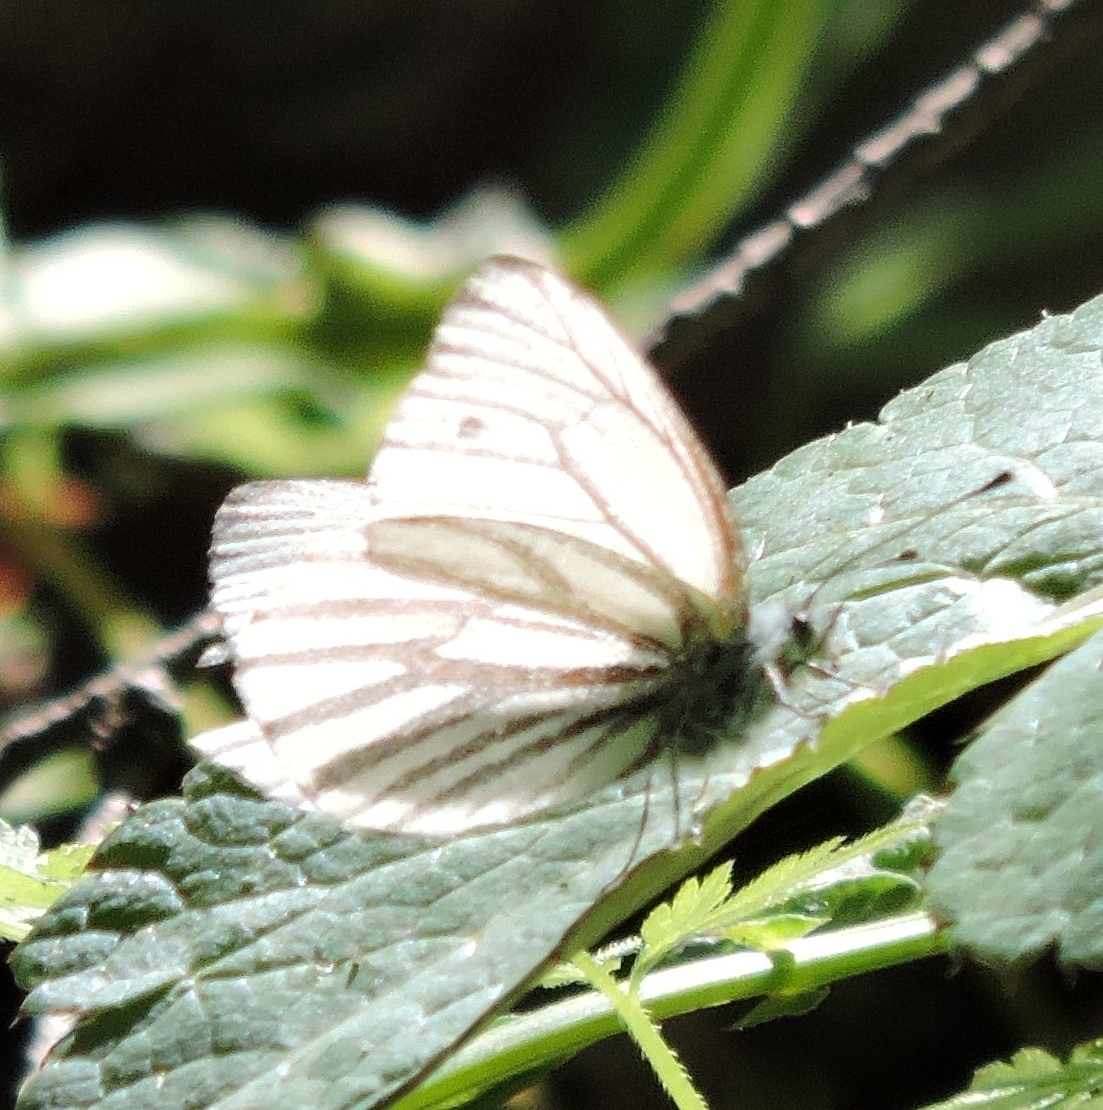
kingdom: Animalia
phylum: Arthropoda
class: Insecta
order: Lepidoptera
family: Pieridae
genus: Pieris
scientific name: Pieris marginalis
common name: Margined white
